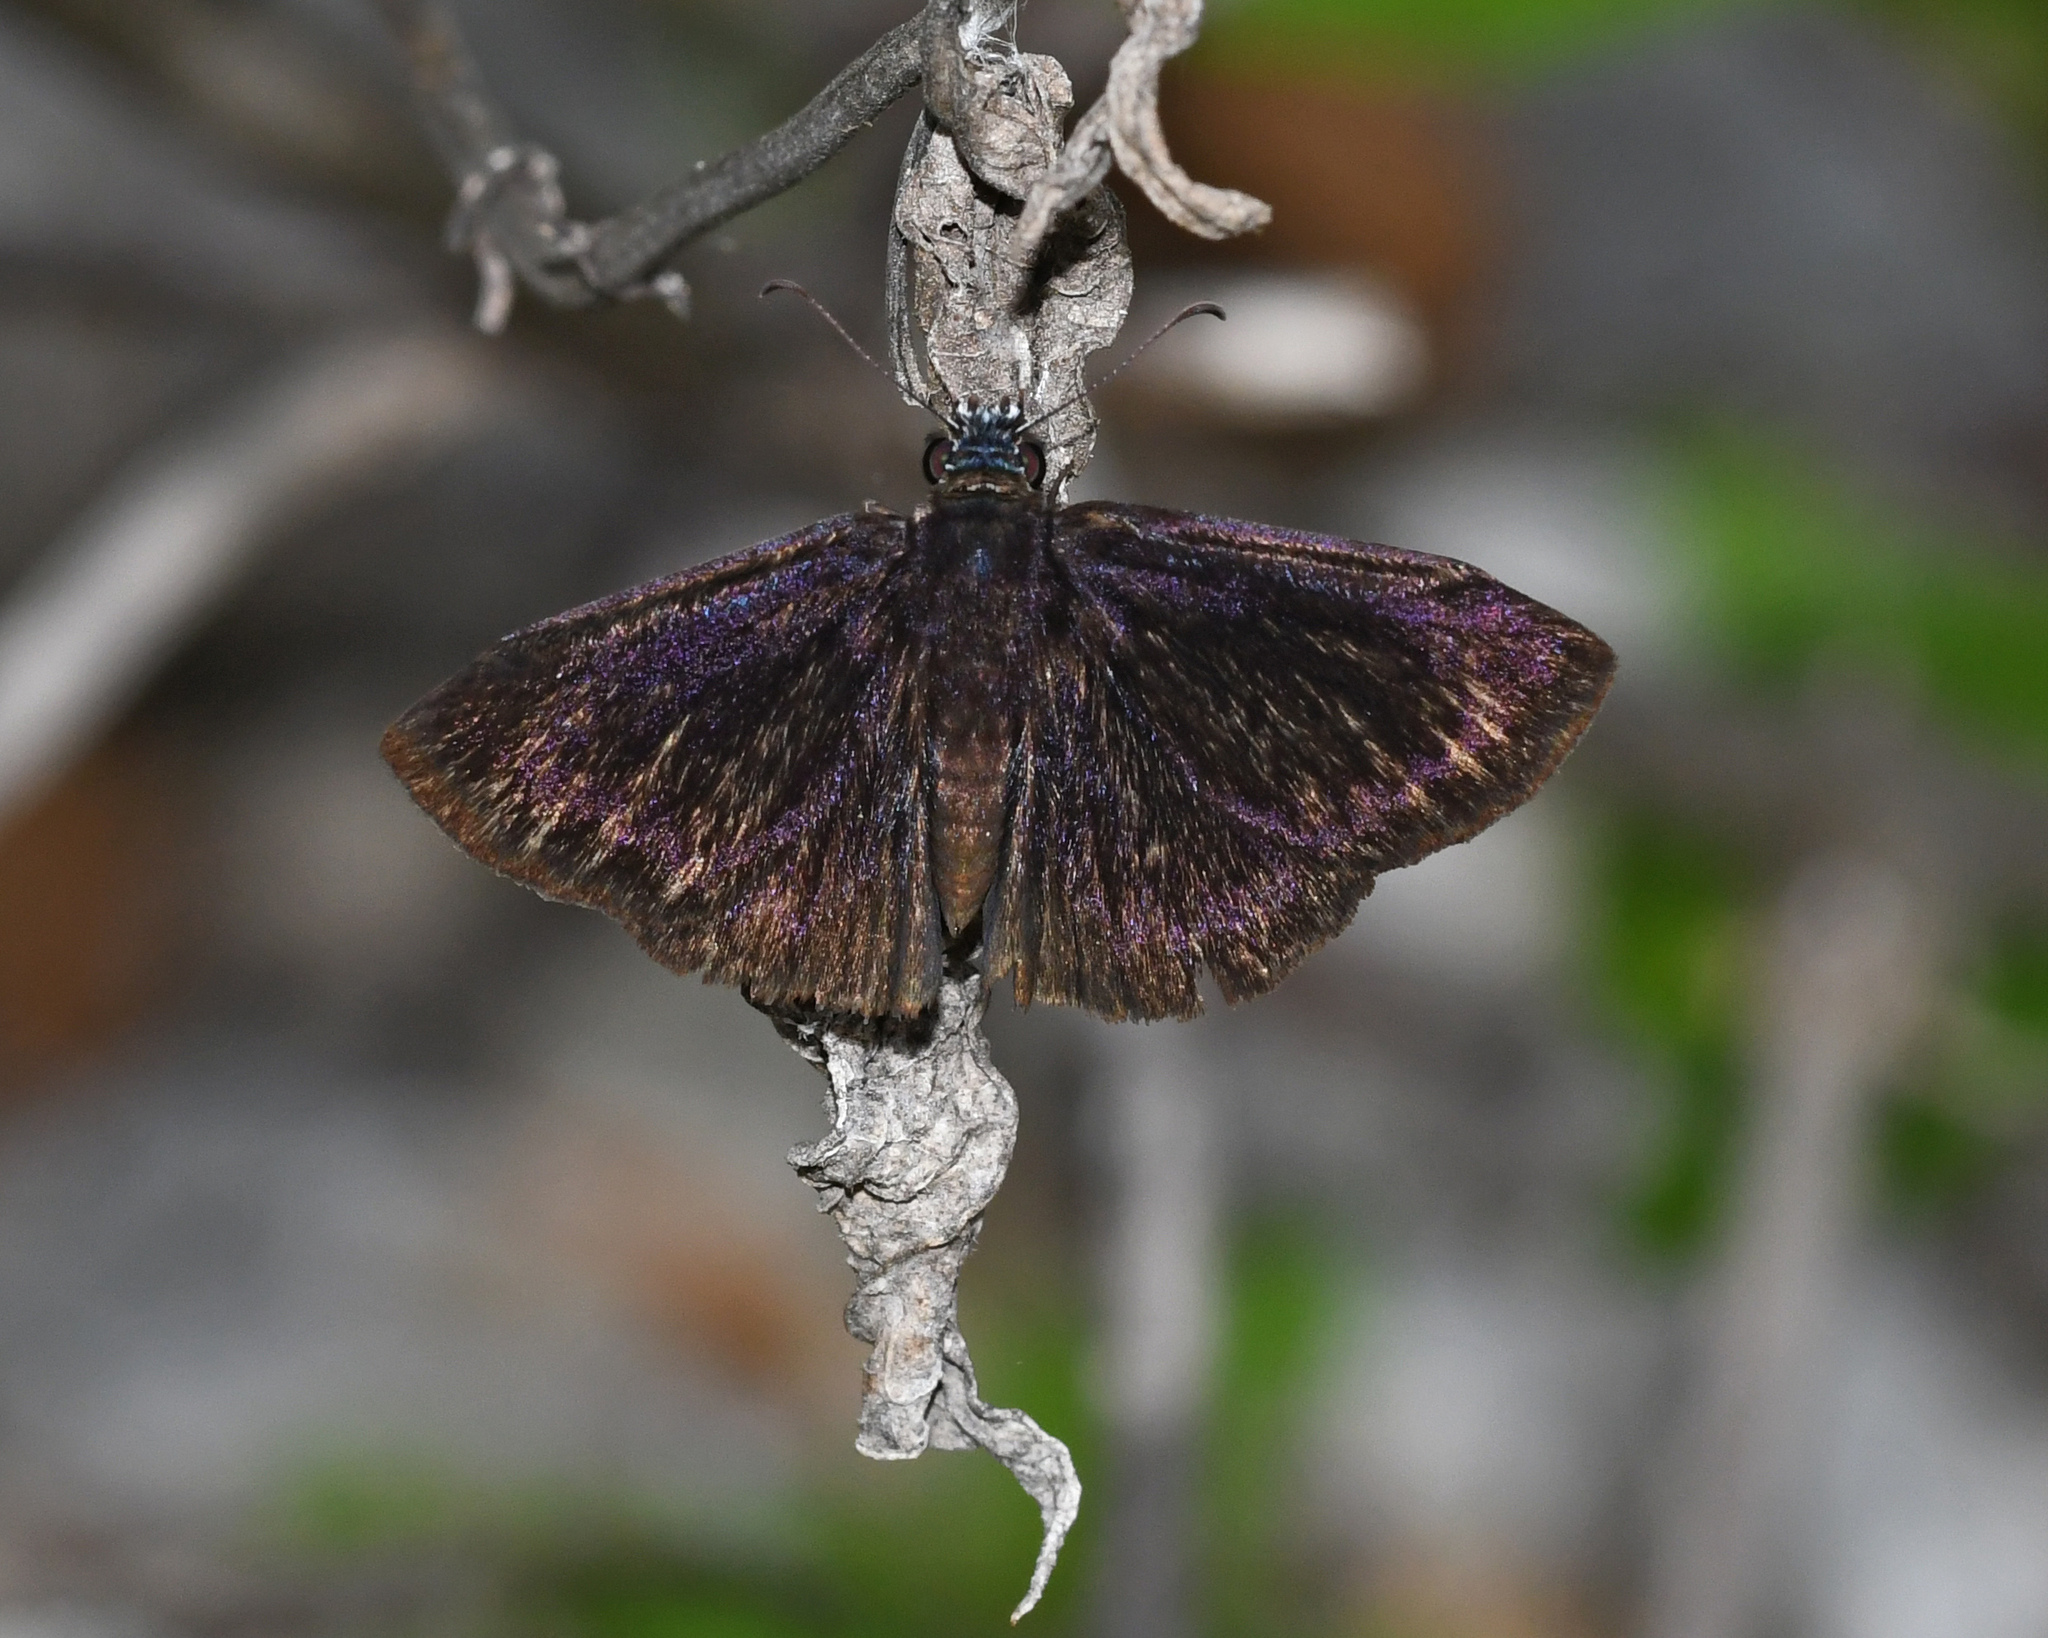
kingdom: Animalia
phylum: Arthropoda
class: Insecta
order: Lepidoptera
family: Hesperiidae
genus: Ephyriades
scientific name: Ephyriades zephodes
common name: Zephodes duskywing
